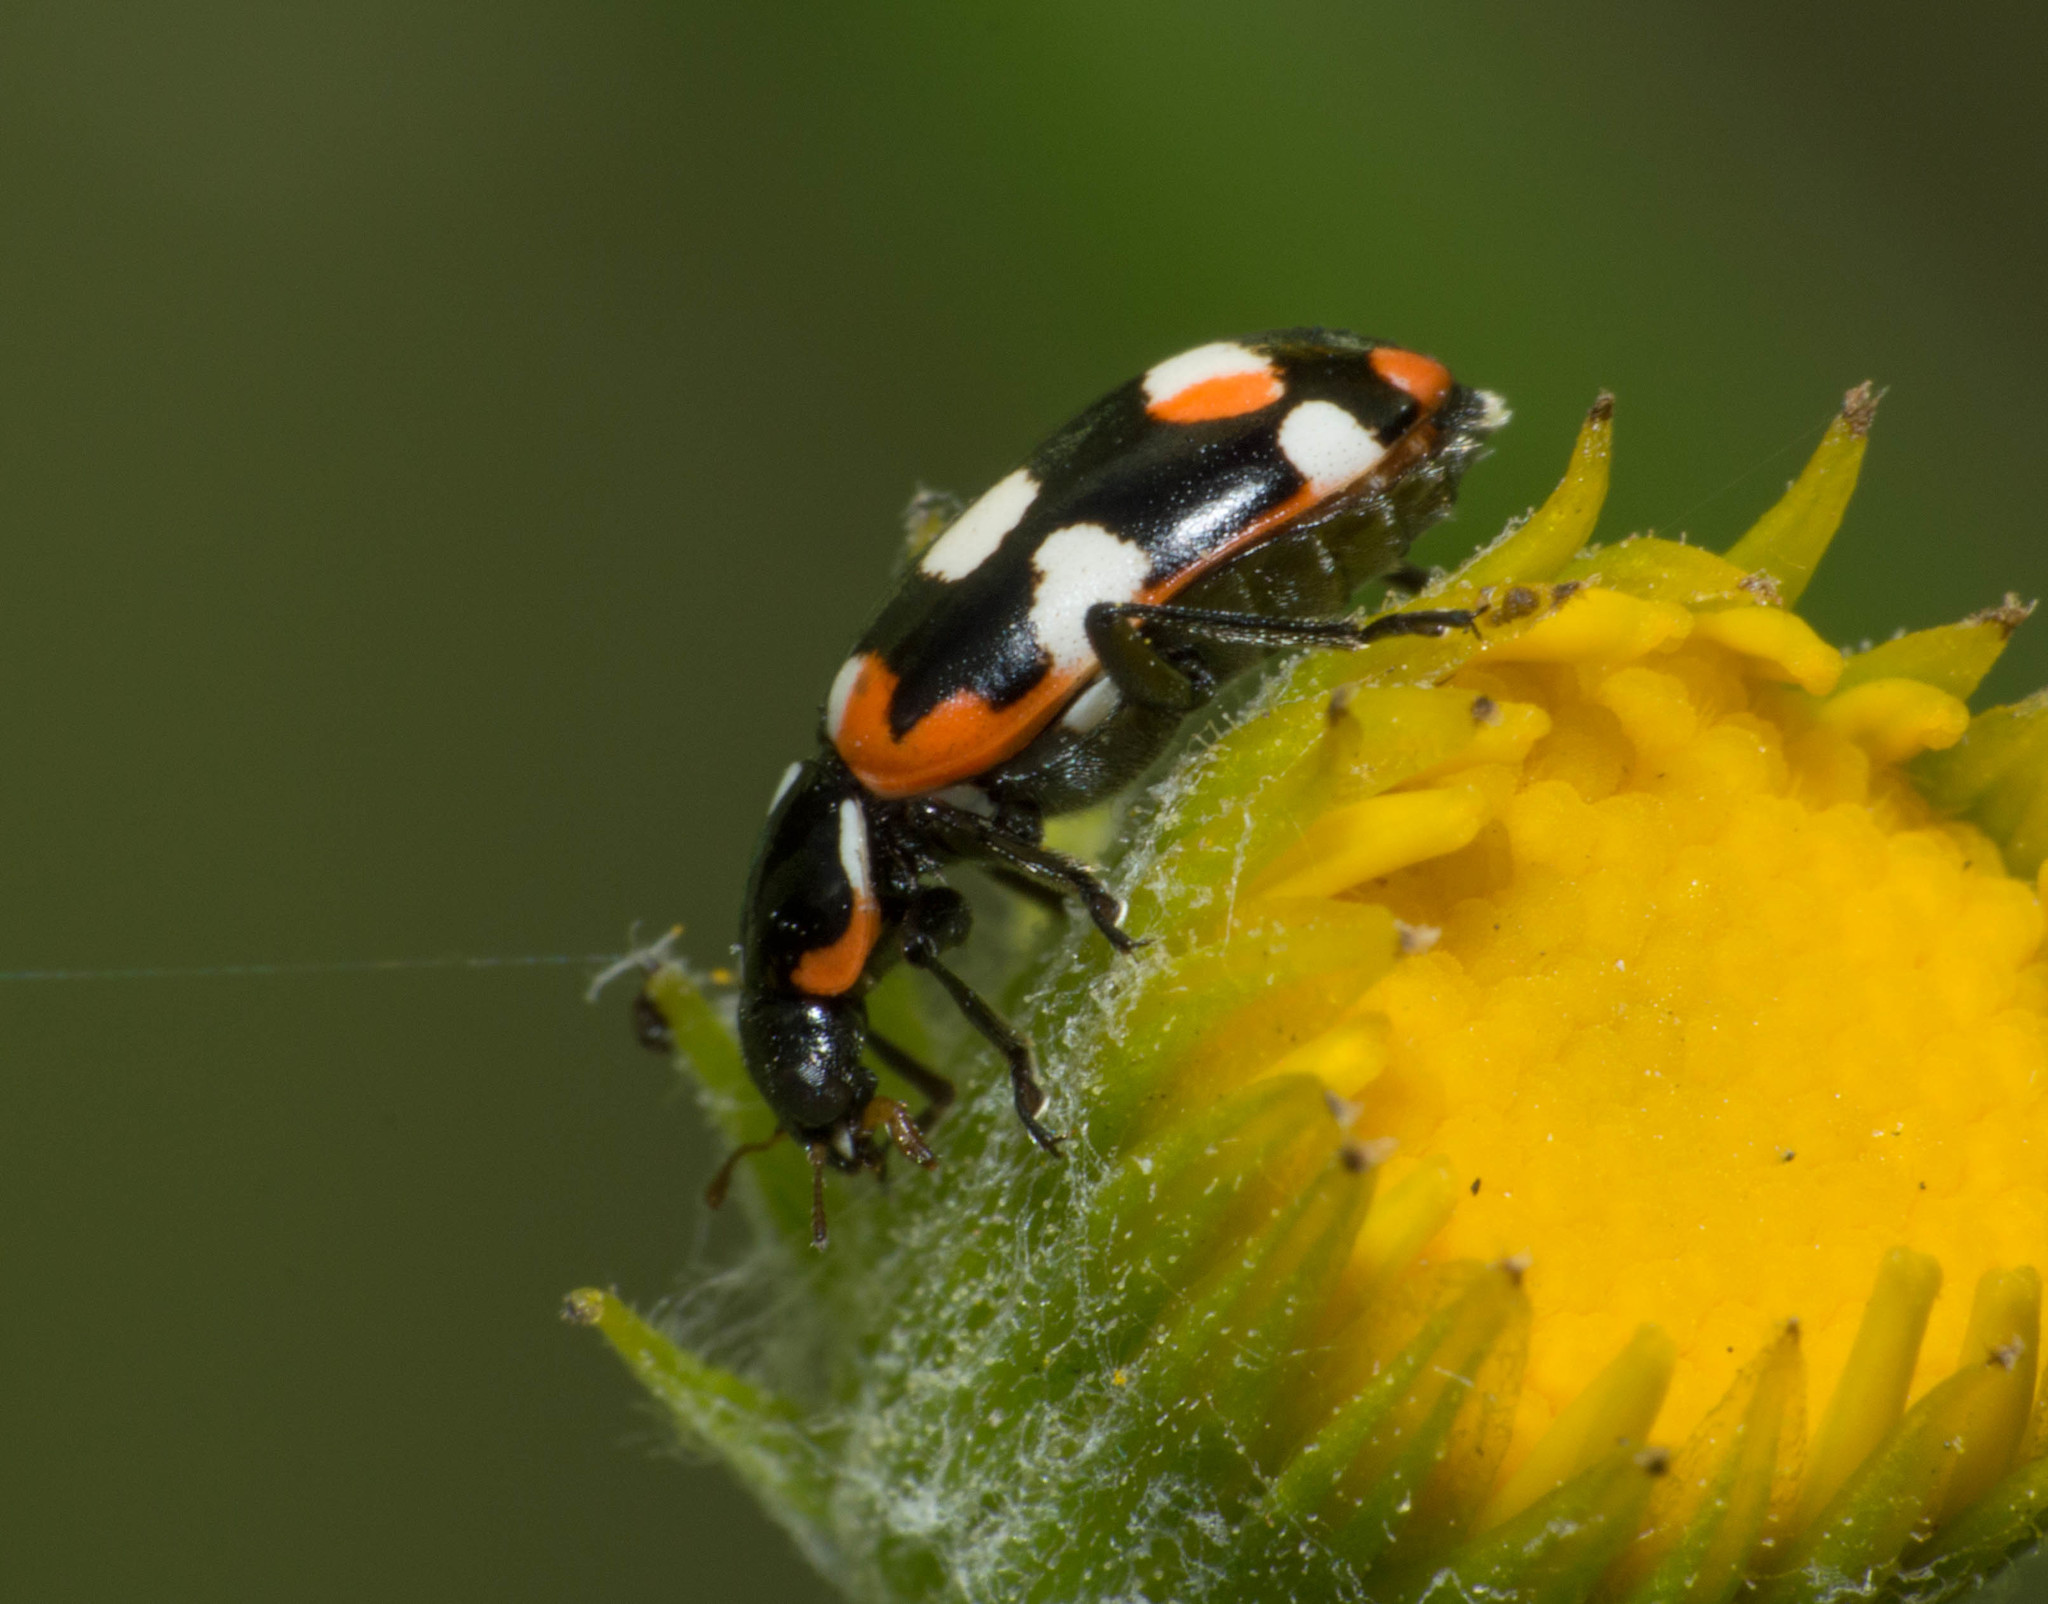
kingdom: Animalia
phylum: Arthropoda
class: Insecta
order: Coleoptera
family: Coccinellidae
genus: Eriopis
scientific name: Eriopis connexa
